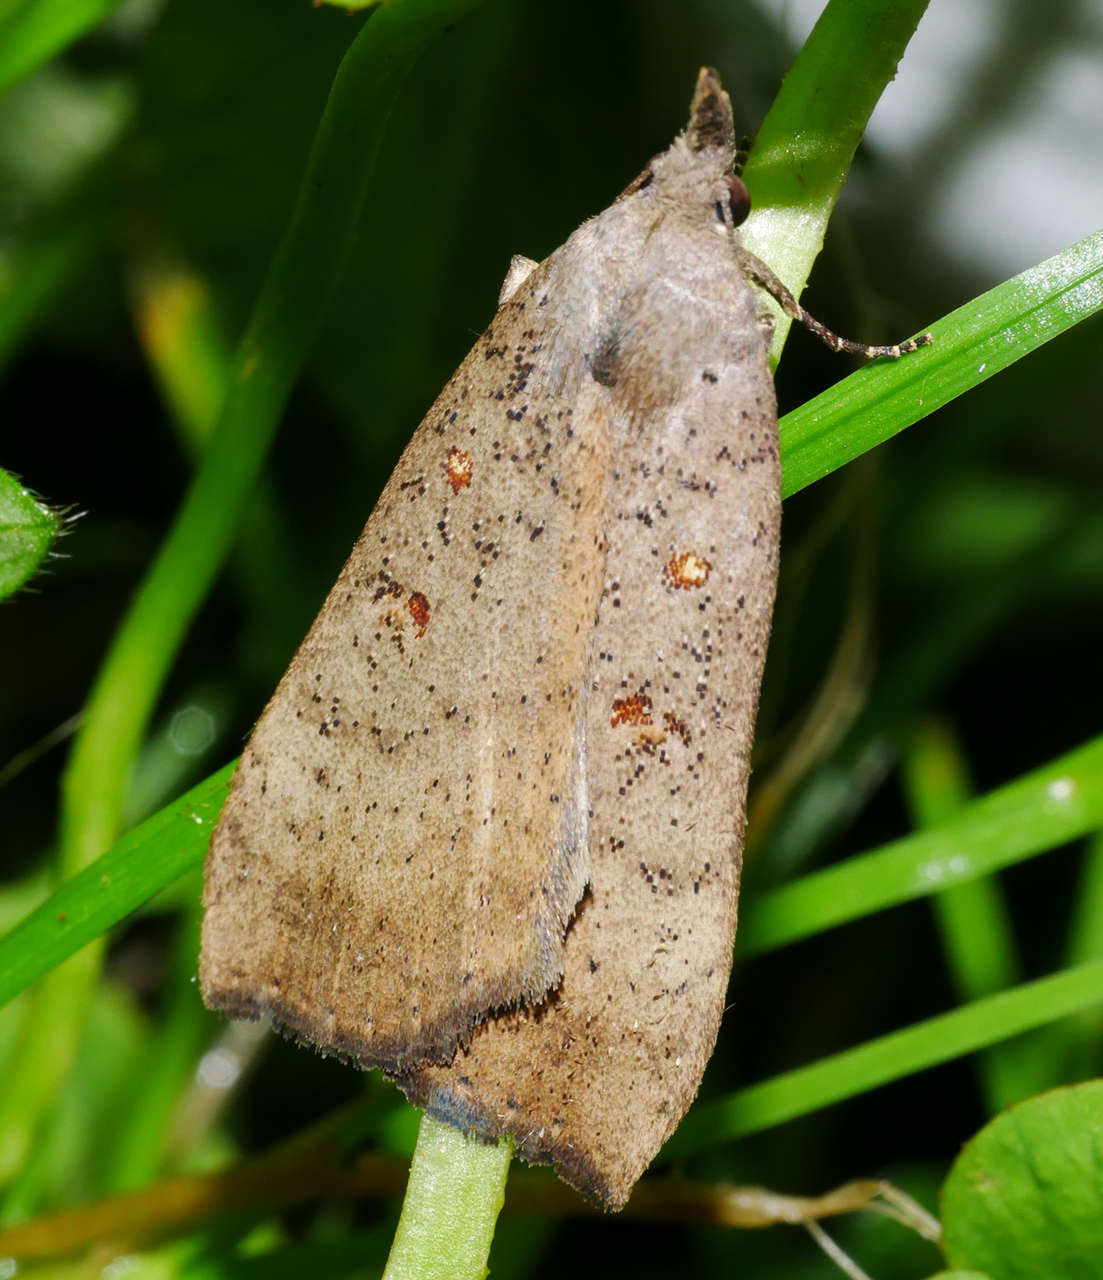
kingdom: Animalia
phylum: Arthropoda
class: Insecta
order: Lepidoptera
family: Erebidae
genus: Rhapsa
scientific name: Rhapsa suscitatalis
